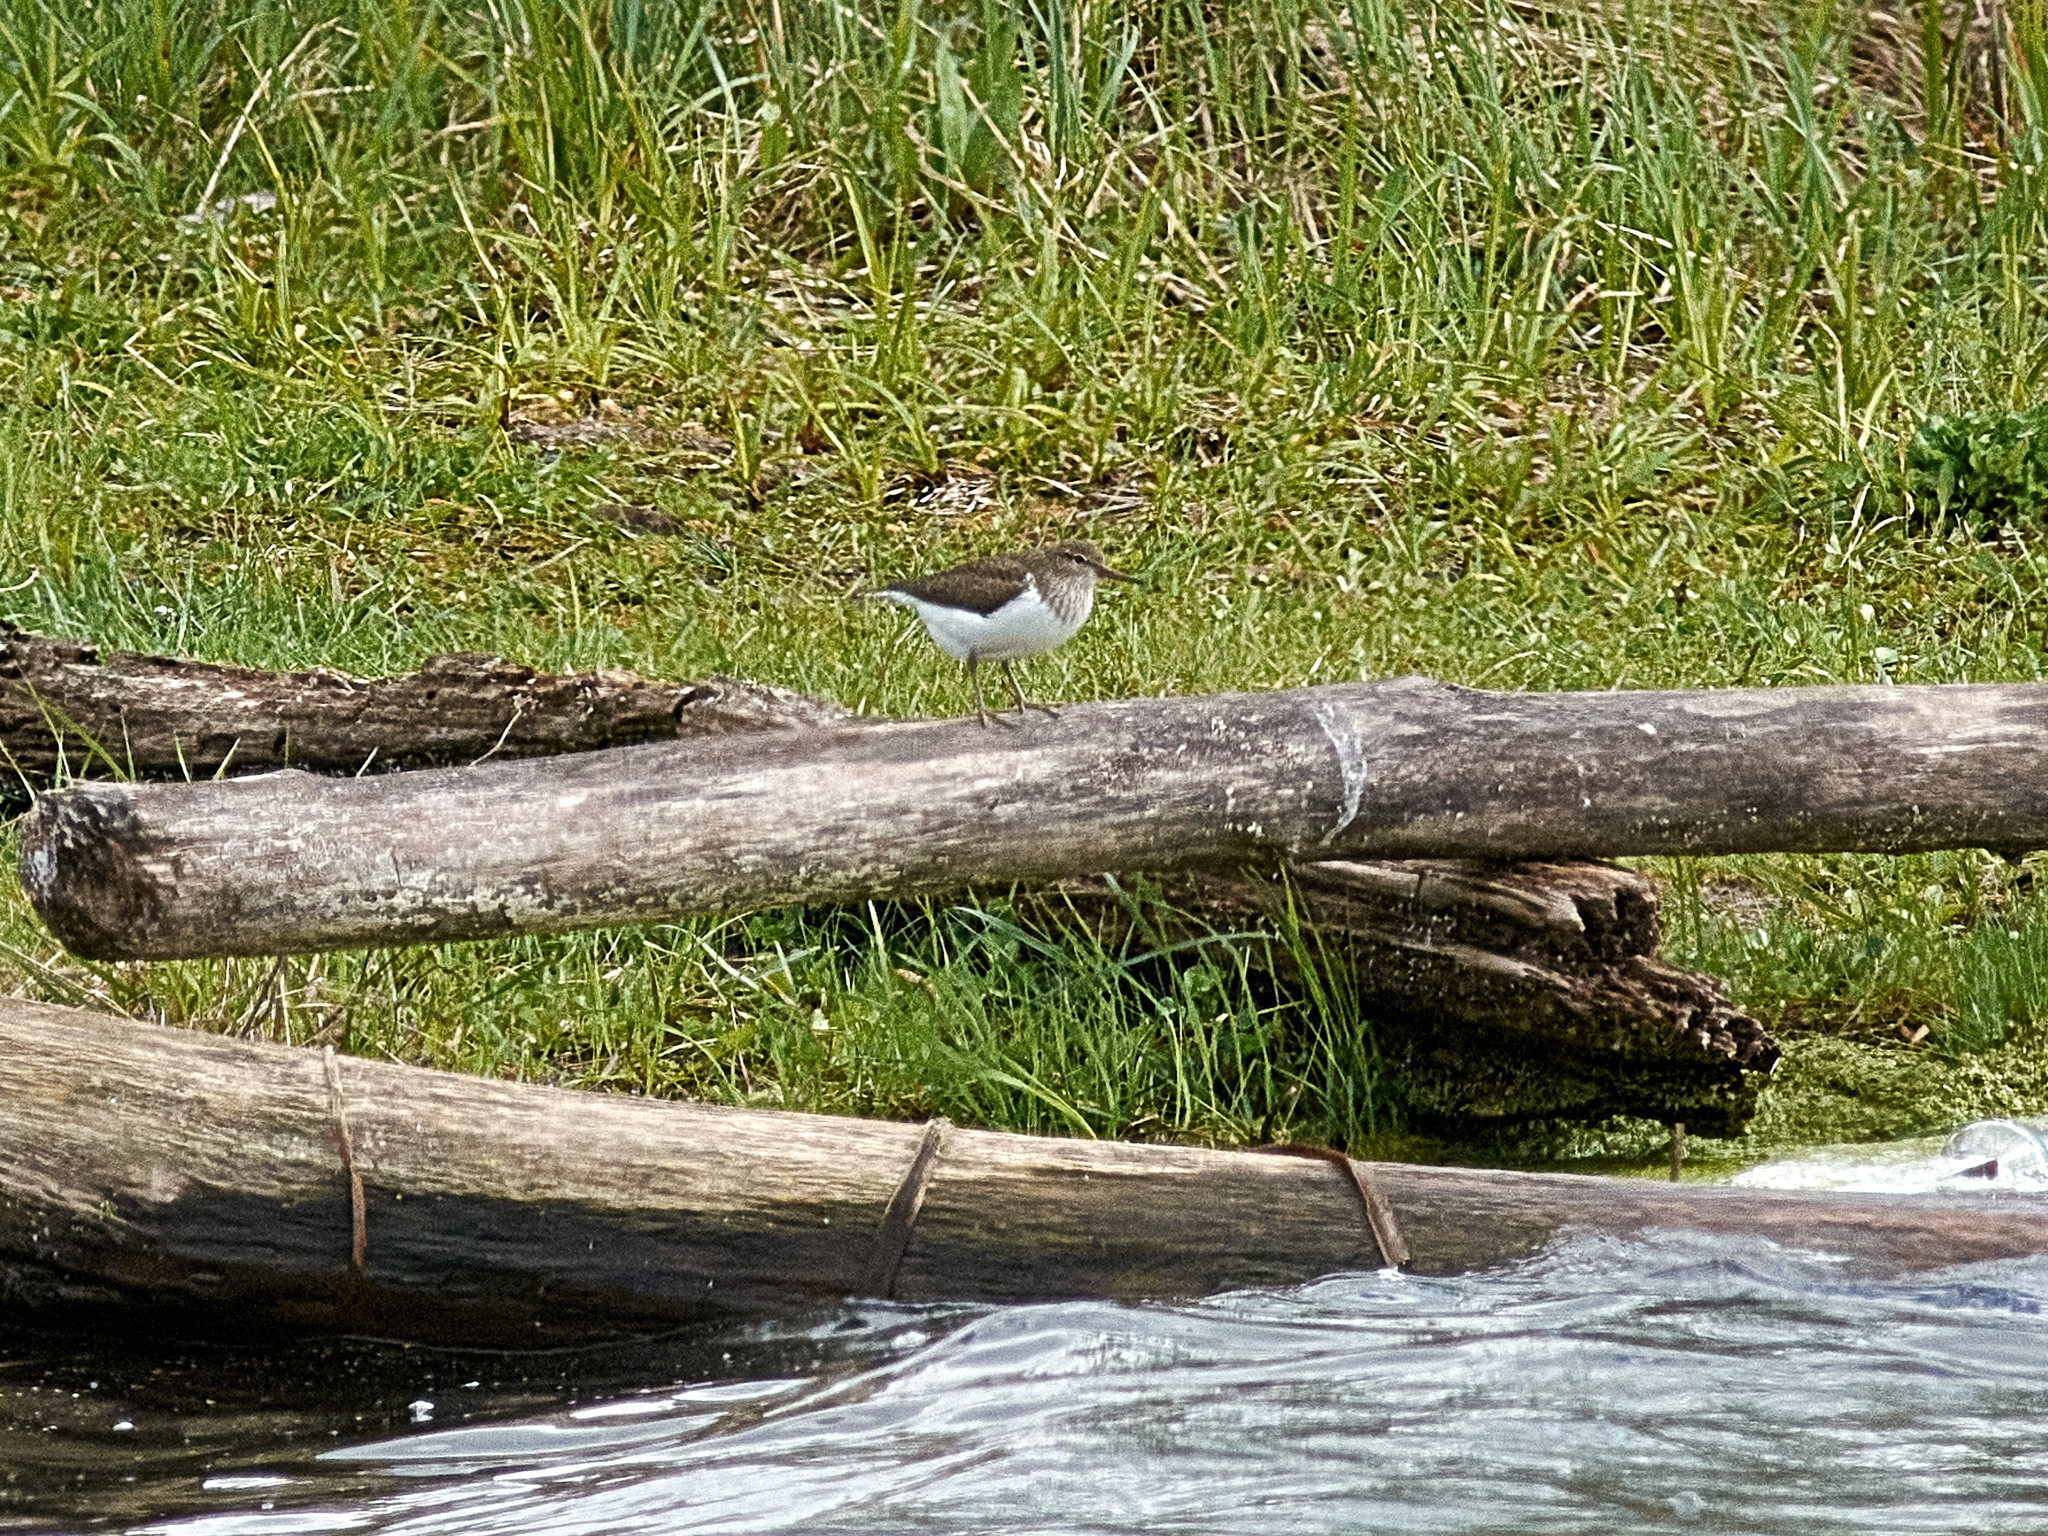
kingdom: Animalia
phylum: Chordata
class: Aves
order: Charadriiformes
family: Scolopacidae
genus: Actitis
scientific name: Actitis hypoleucos
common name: Common sandpiper
